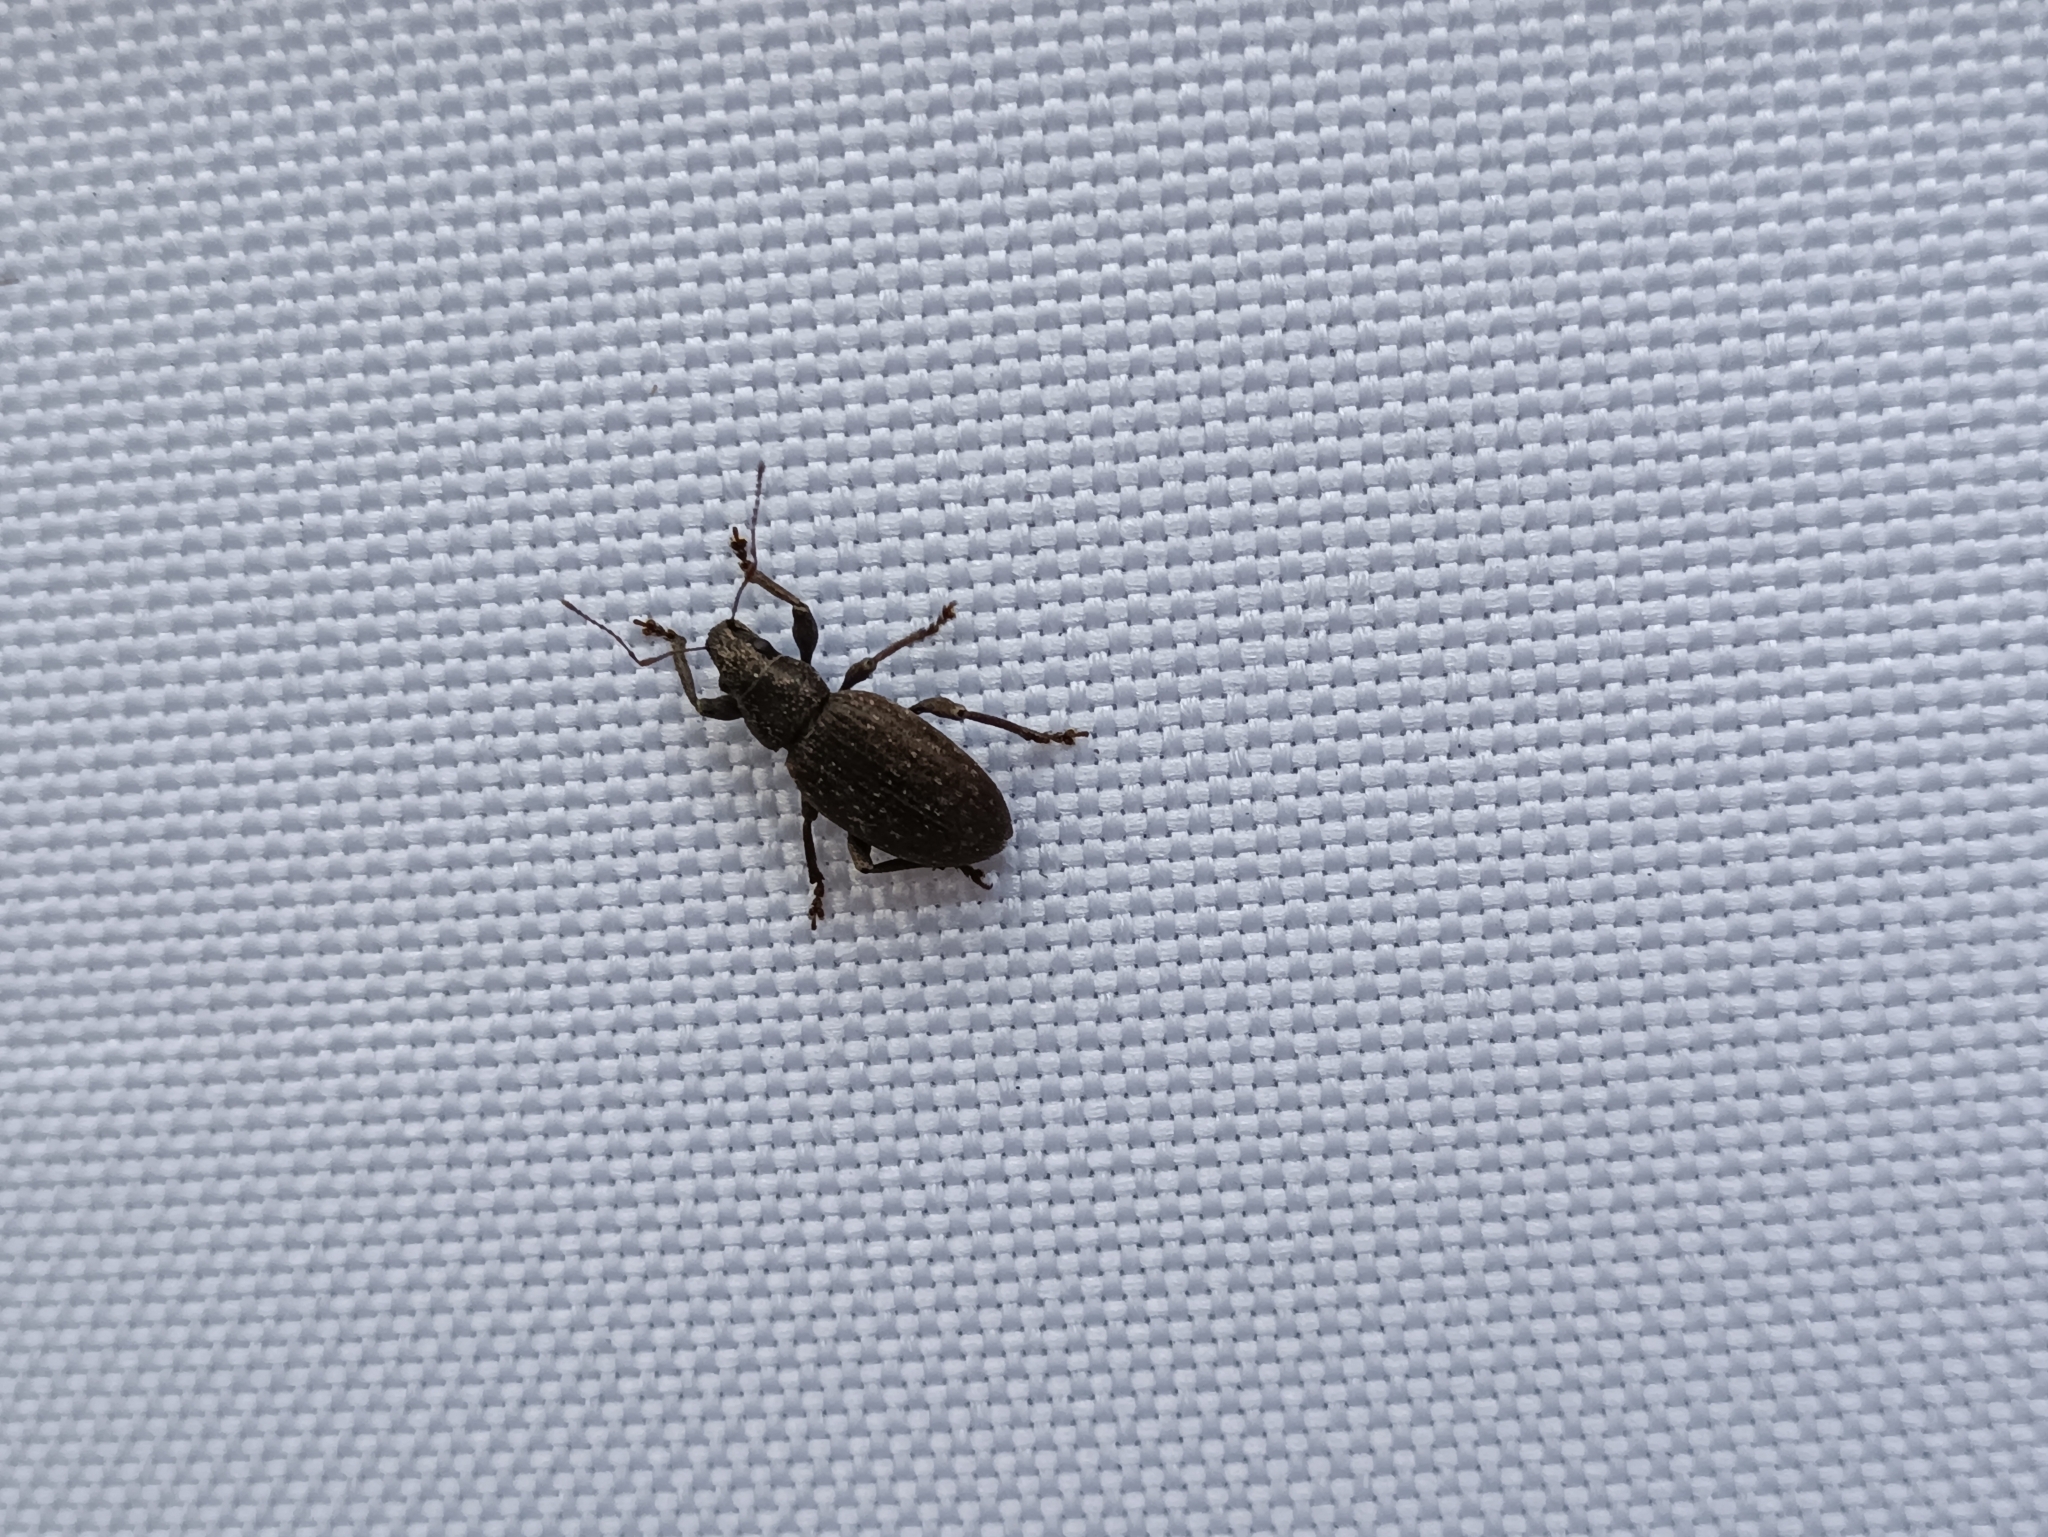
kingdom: Animalia
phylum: Arthropoda
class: Insecta
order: Coleoptera
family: Curculionidae
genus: Brachyderes
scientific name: Brachyderes incanus
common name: Weevil
